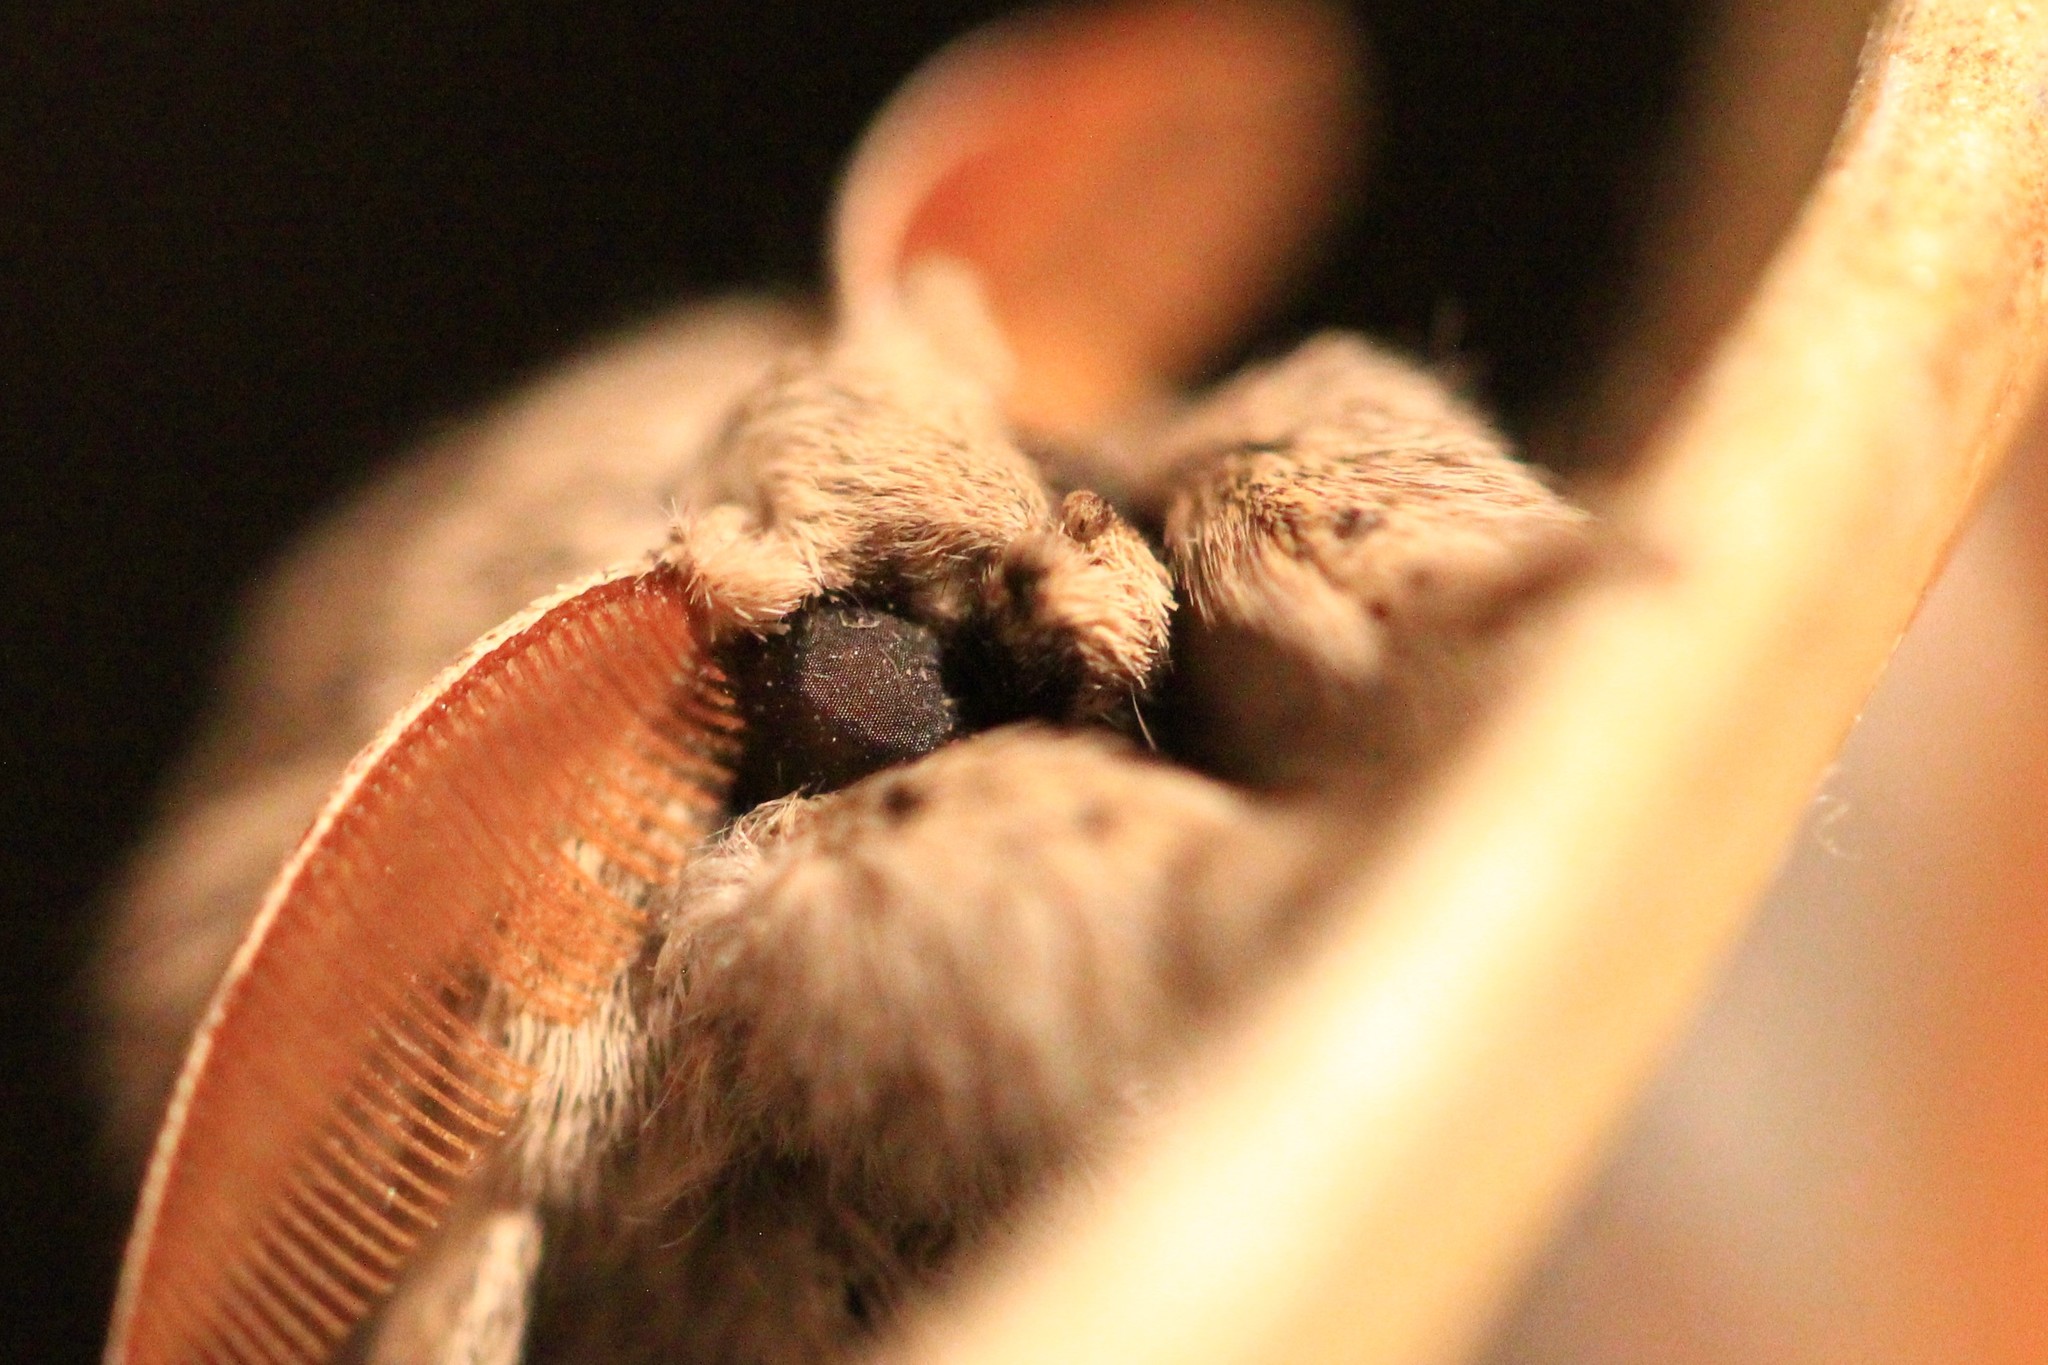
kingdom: Animalia
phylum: Arthropoda
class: Insecta
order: Lepidoptera
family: Erebidae
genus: Calliteara
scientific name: Calliteara pudibunda
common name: Pale tussock
